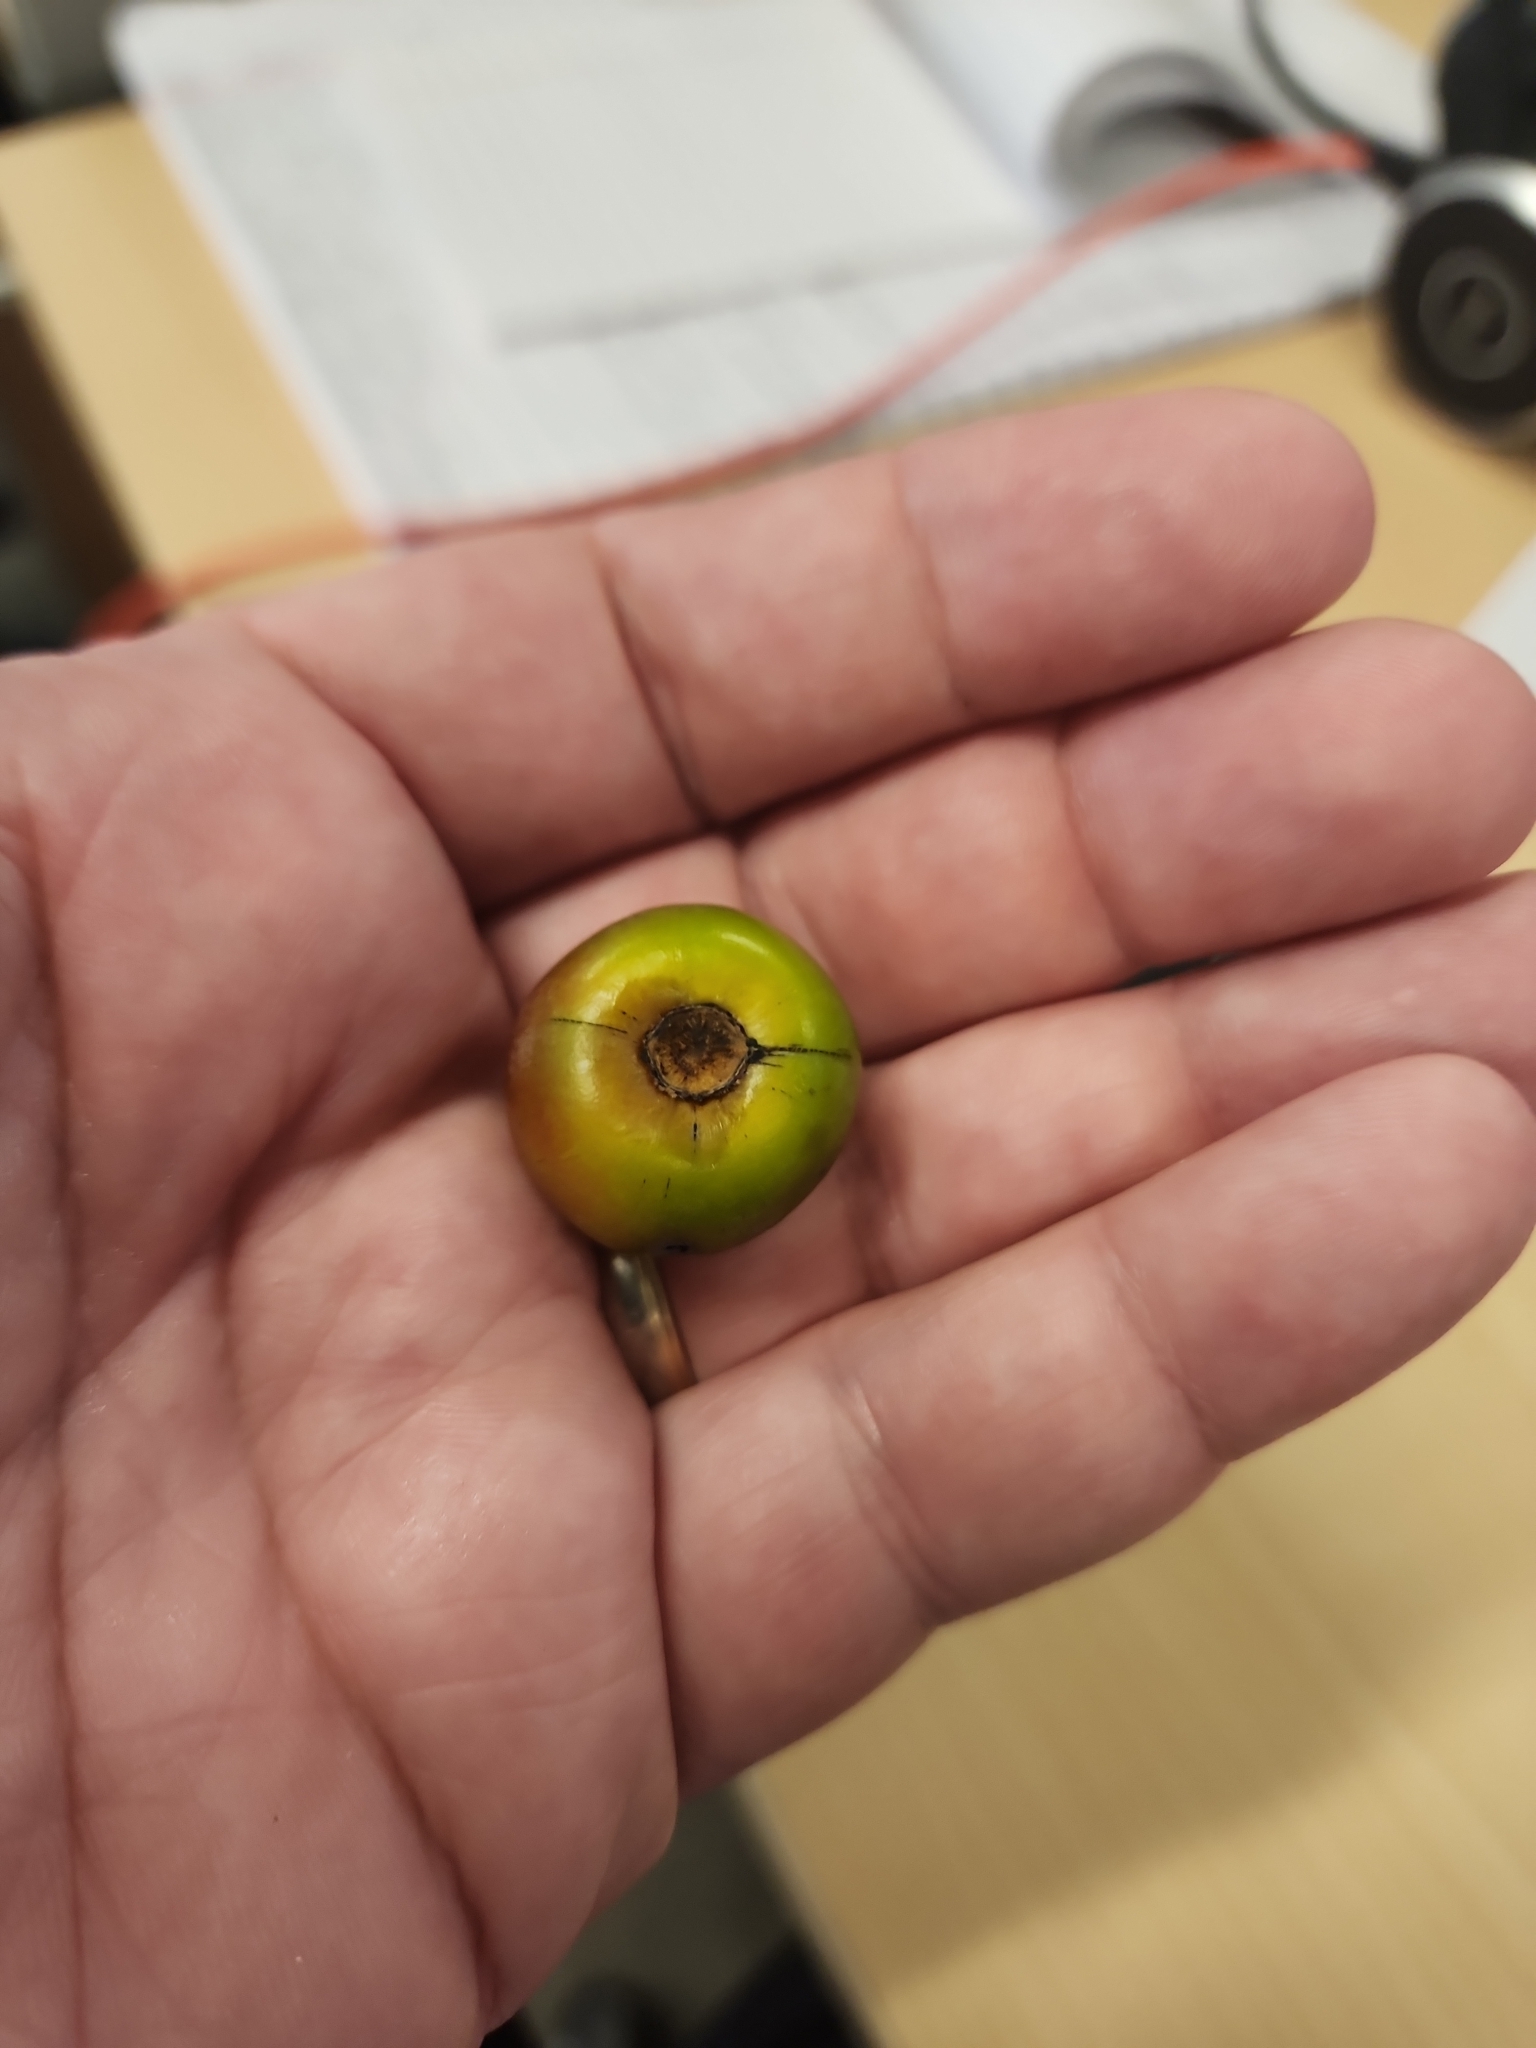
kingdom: Plantae
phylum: Tracheophyta
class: Magnoliopsida
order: Ericales
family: Ebenaceae
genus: Diospyros
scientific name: Diospyros virginiana
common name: Persimmon
